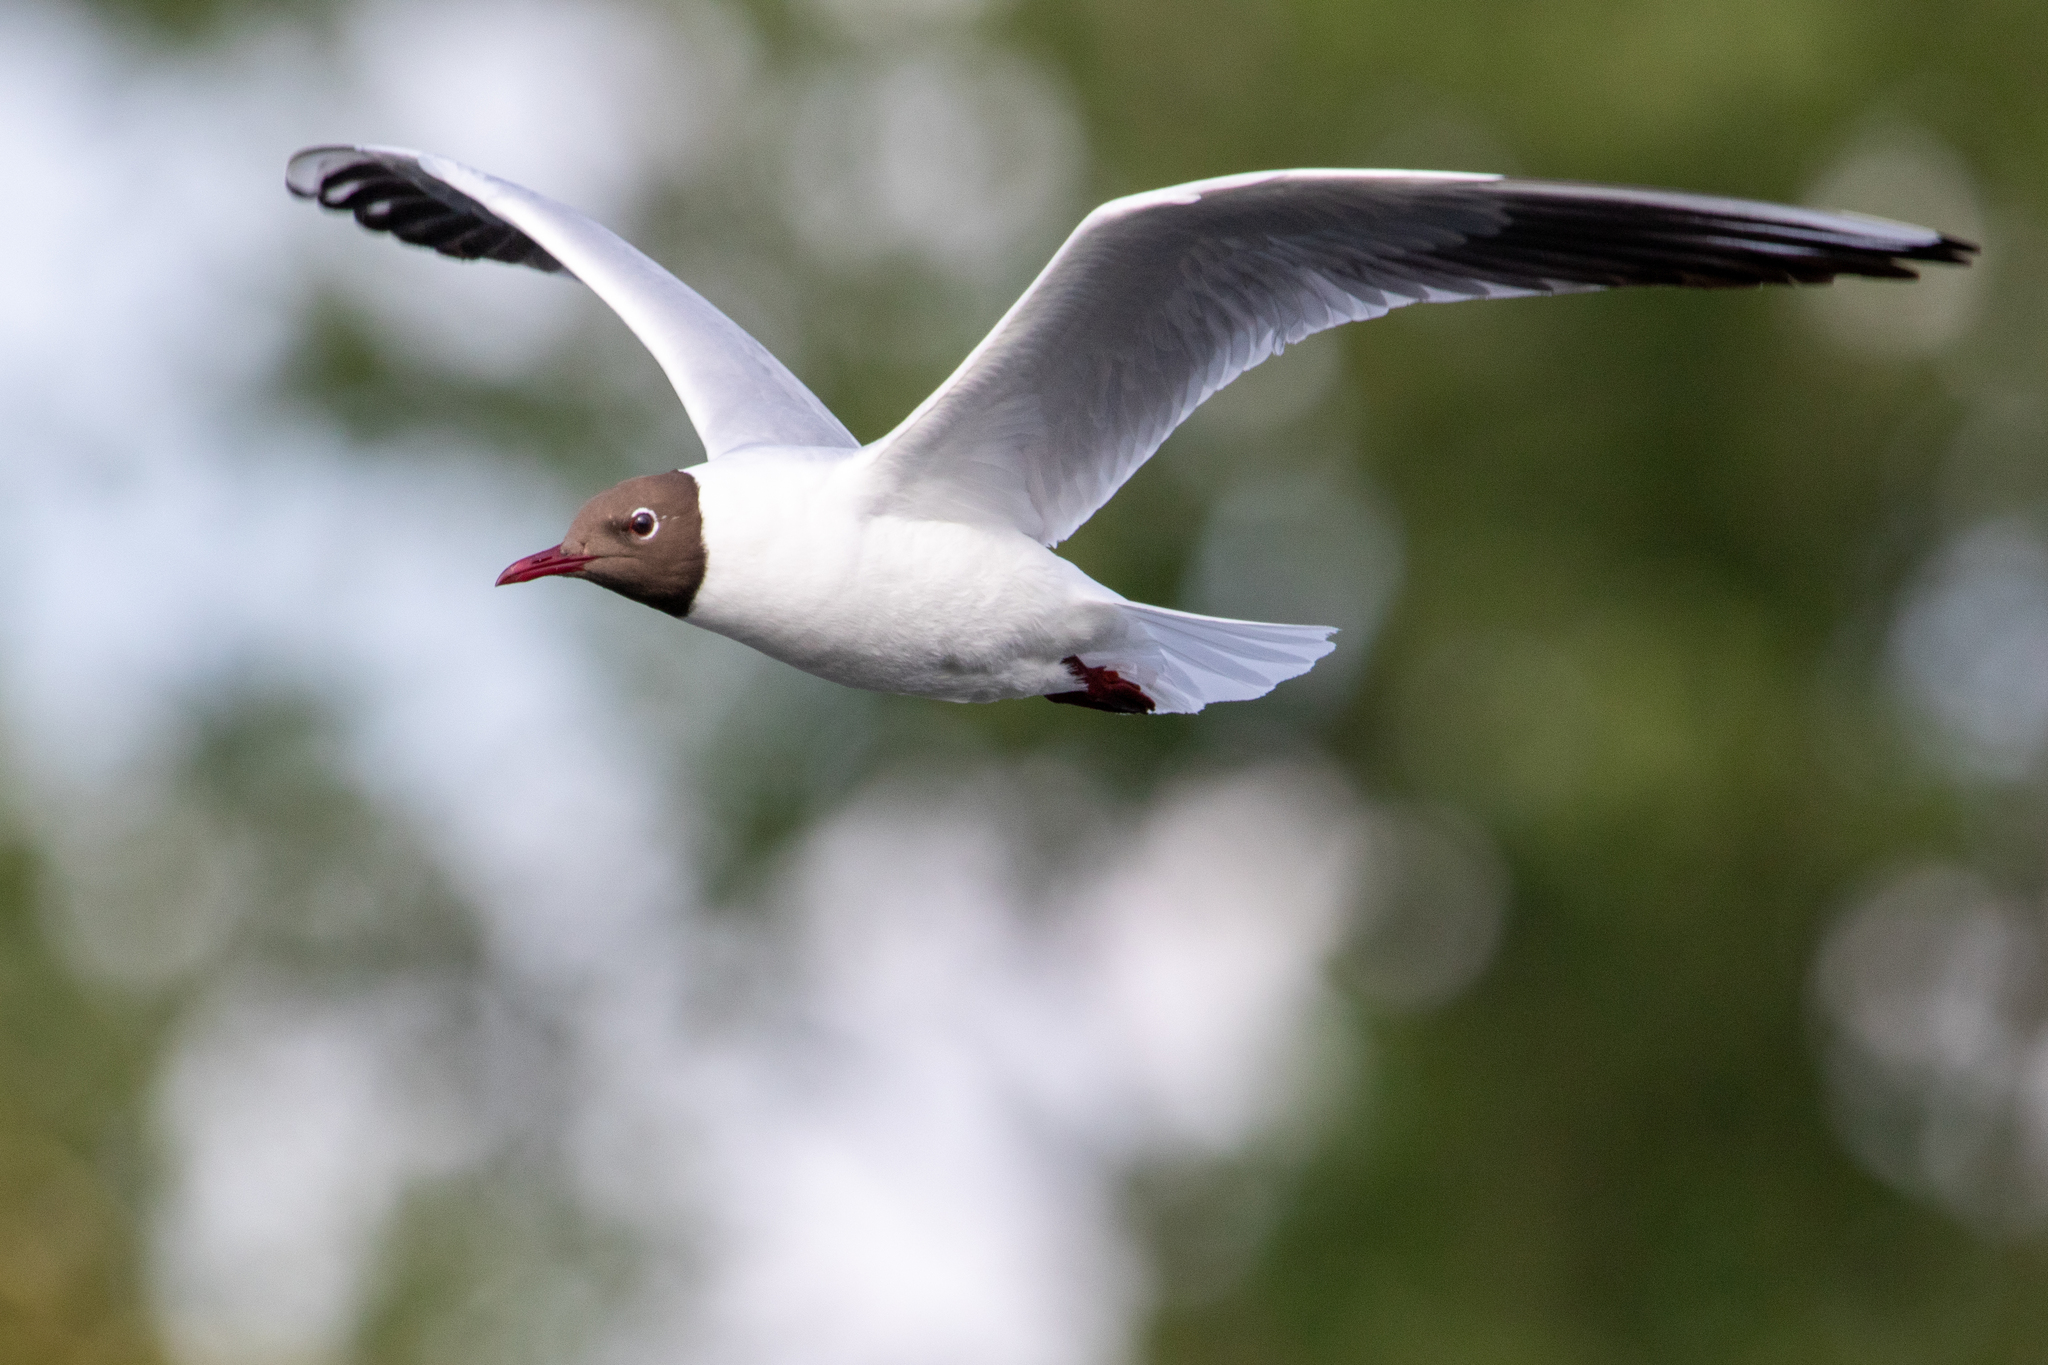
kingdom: Animalia
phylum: Chordata
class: Aves
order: Charadriiformes
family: Laridae
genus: Chroicocephalus
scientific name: Chroicocephalus ridibundus
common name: Black-headed gull
